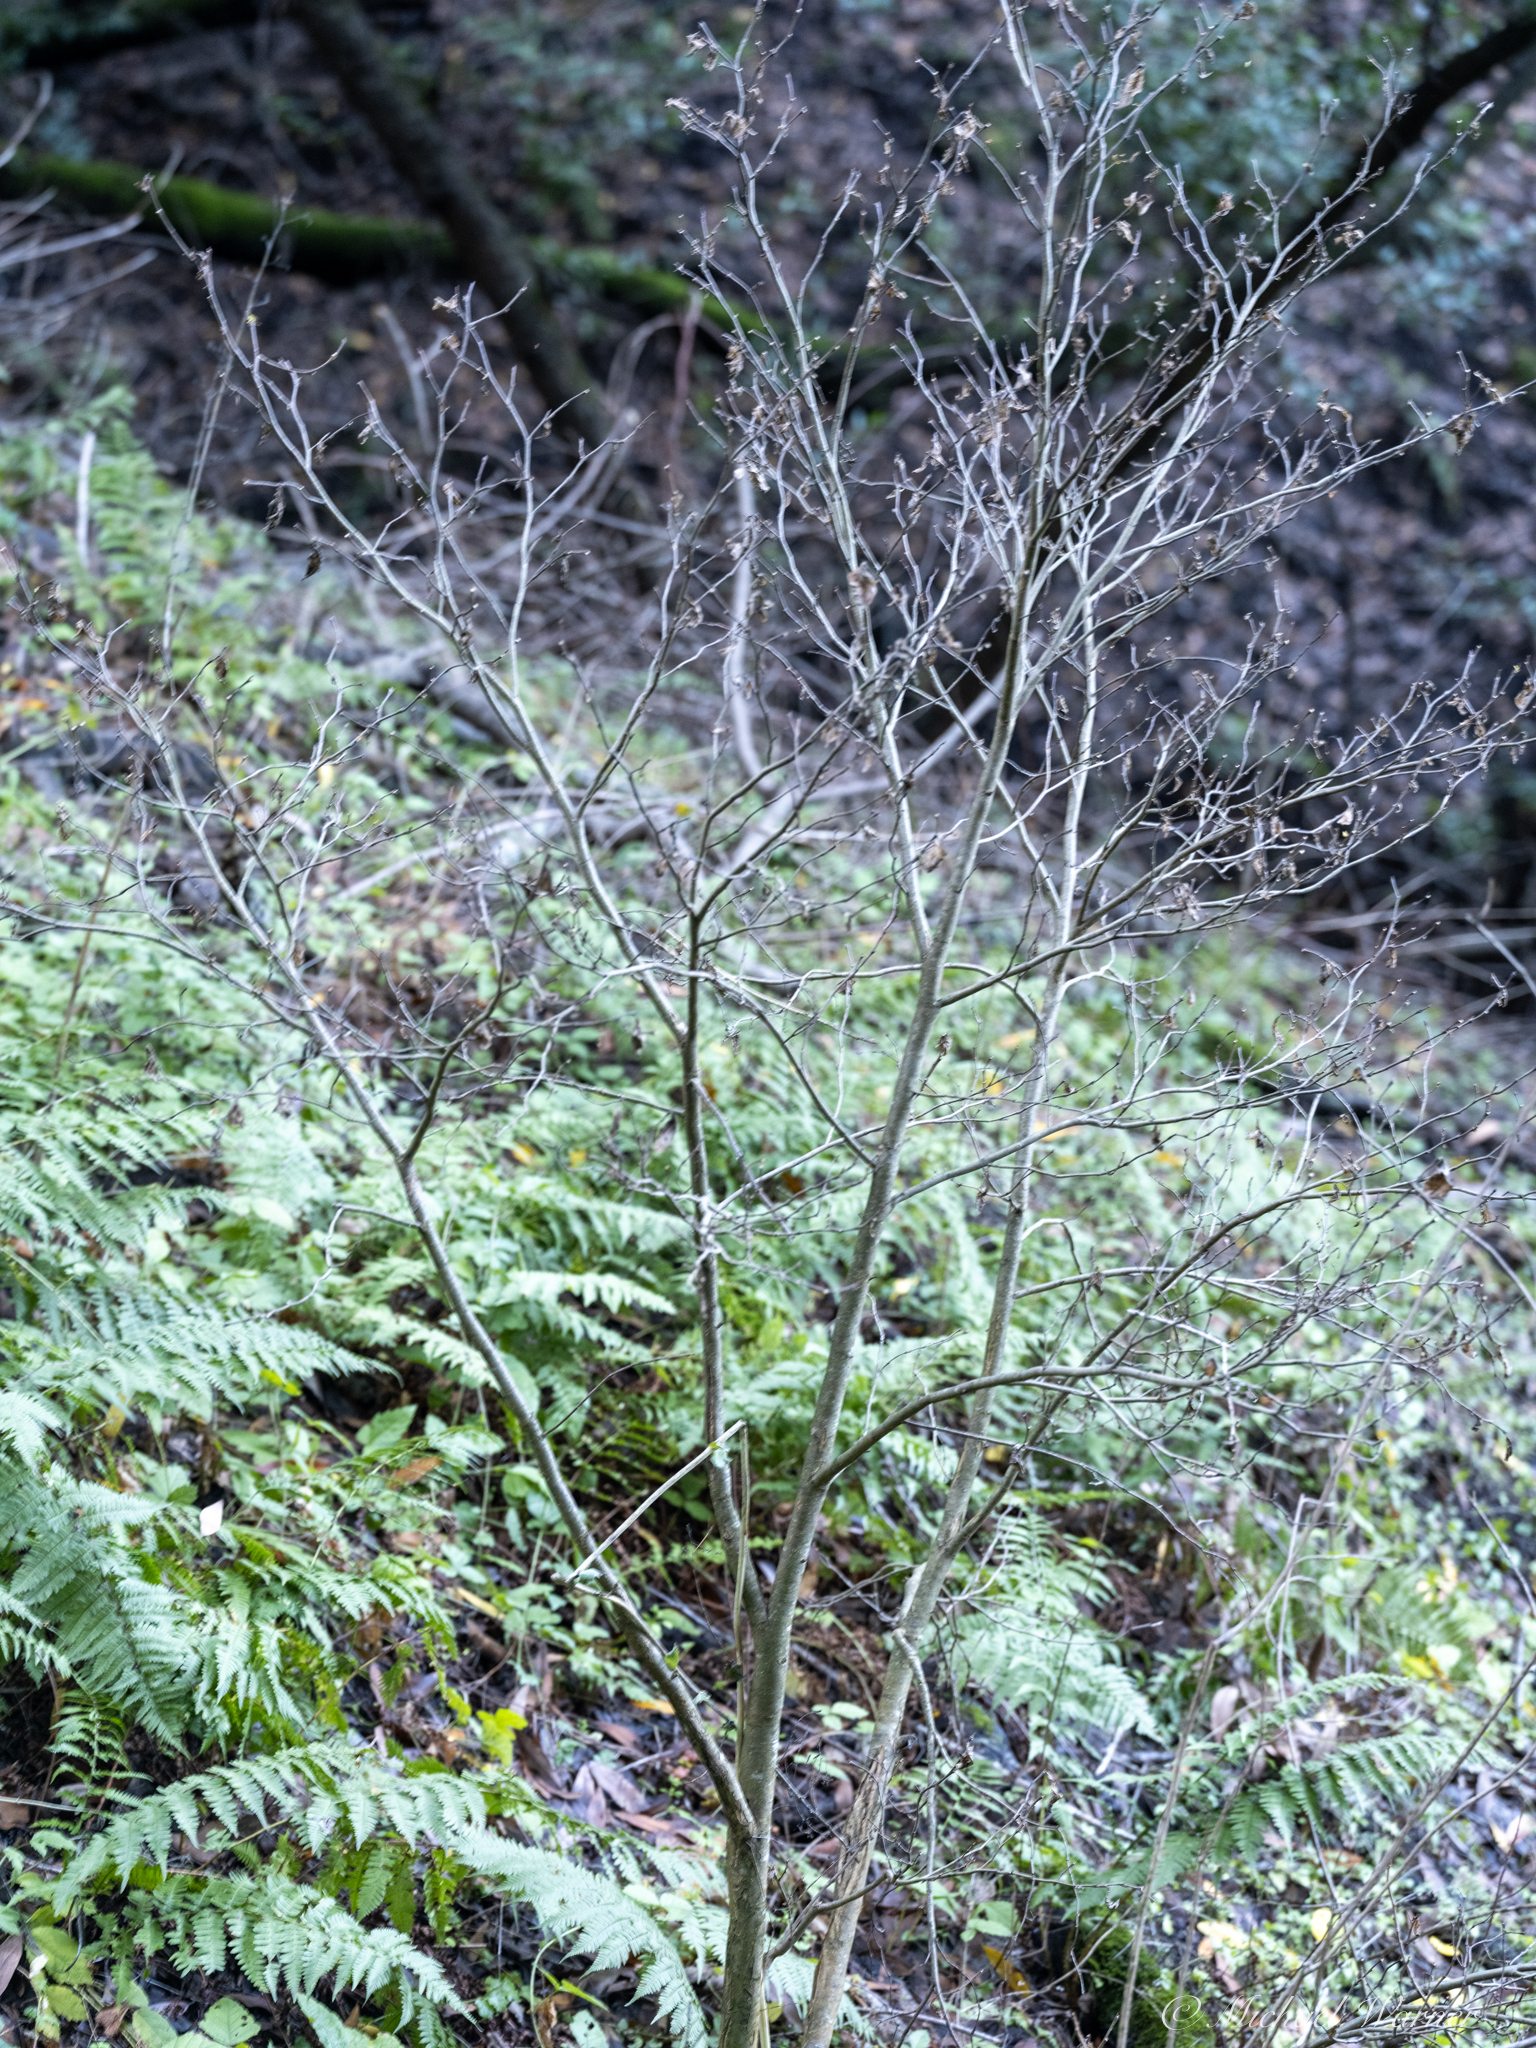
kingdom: Plantae
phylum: Tracheophyta
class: Magnoliopsida
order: Malvales
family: Thymelaeaceae
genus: Dirca
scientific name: Dirca occidentalis
